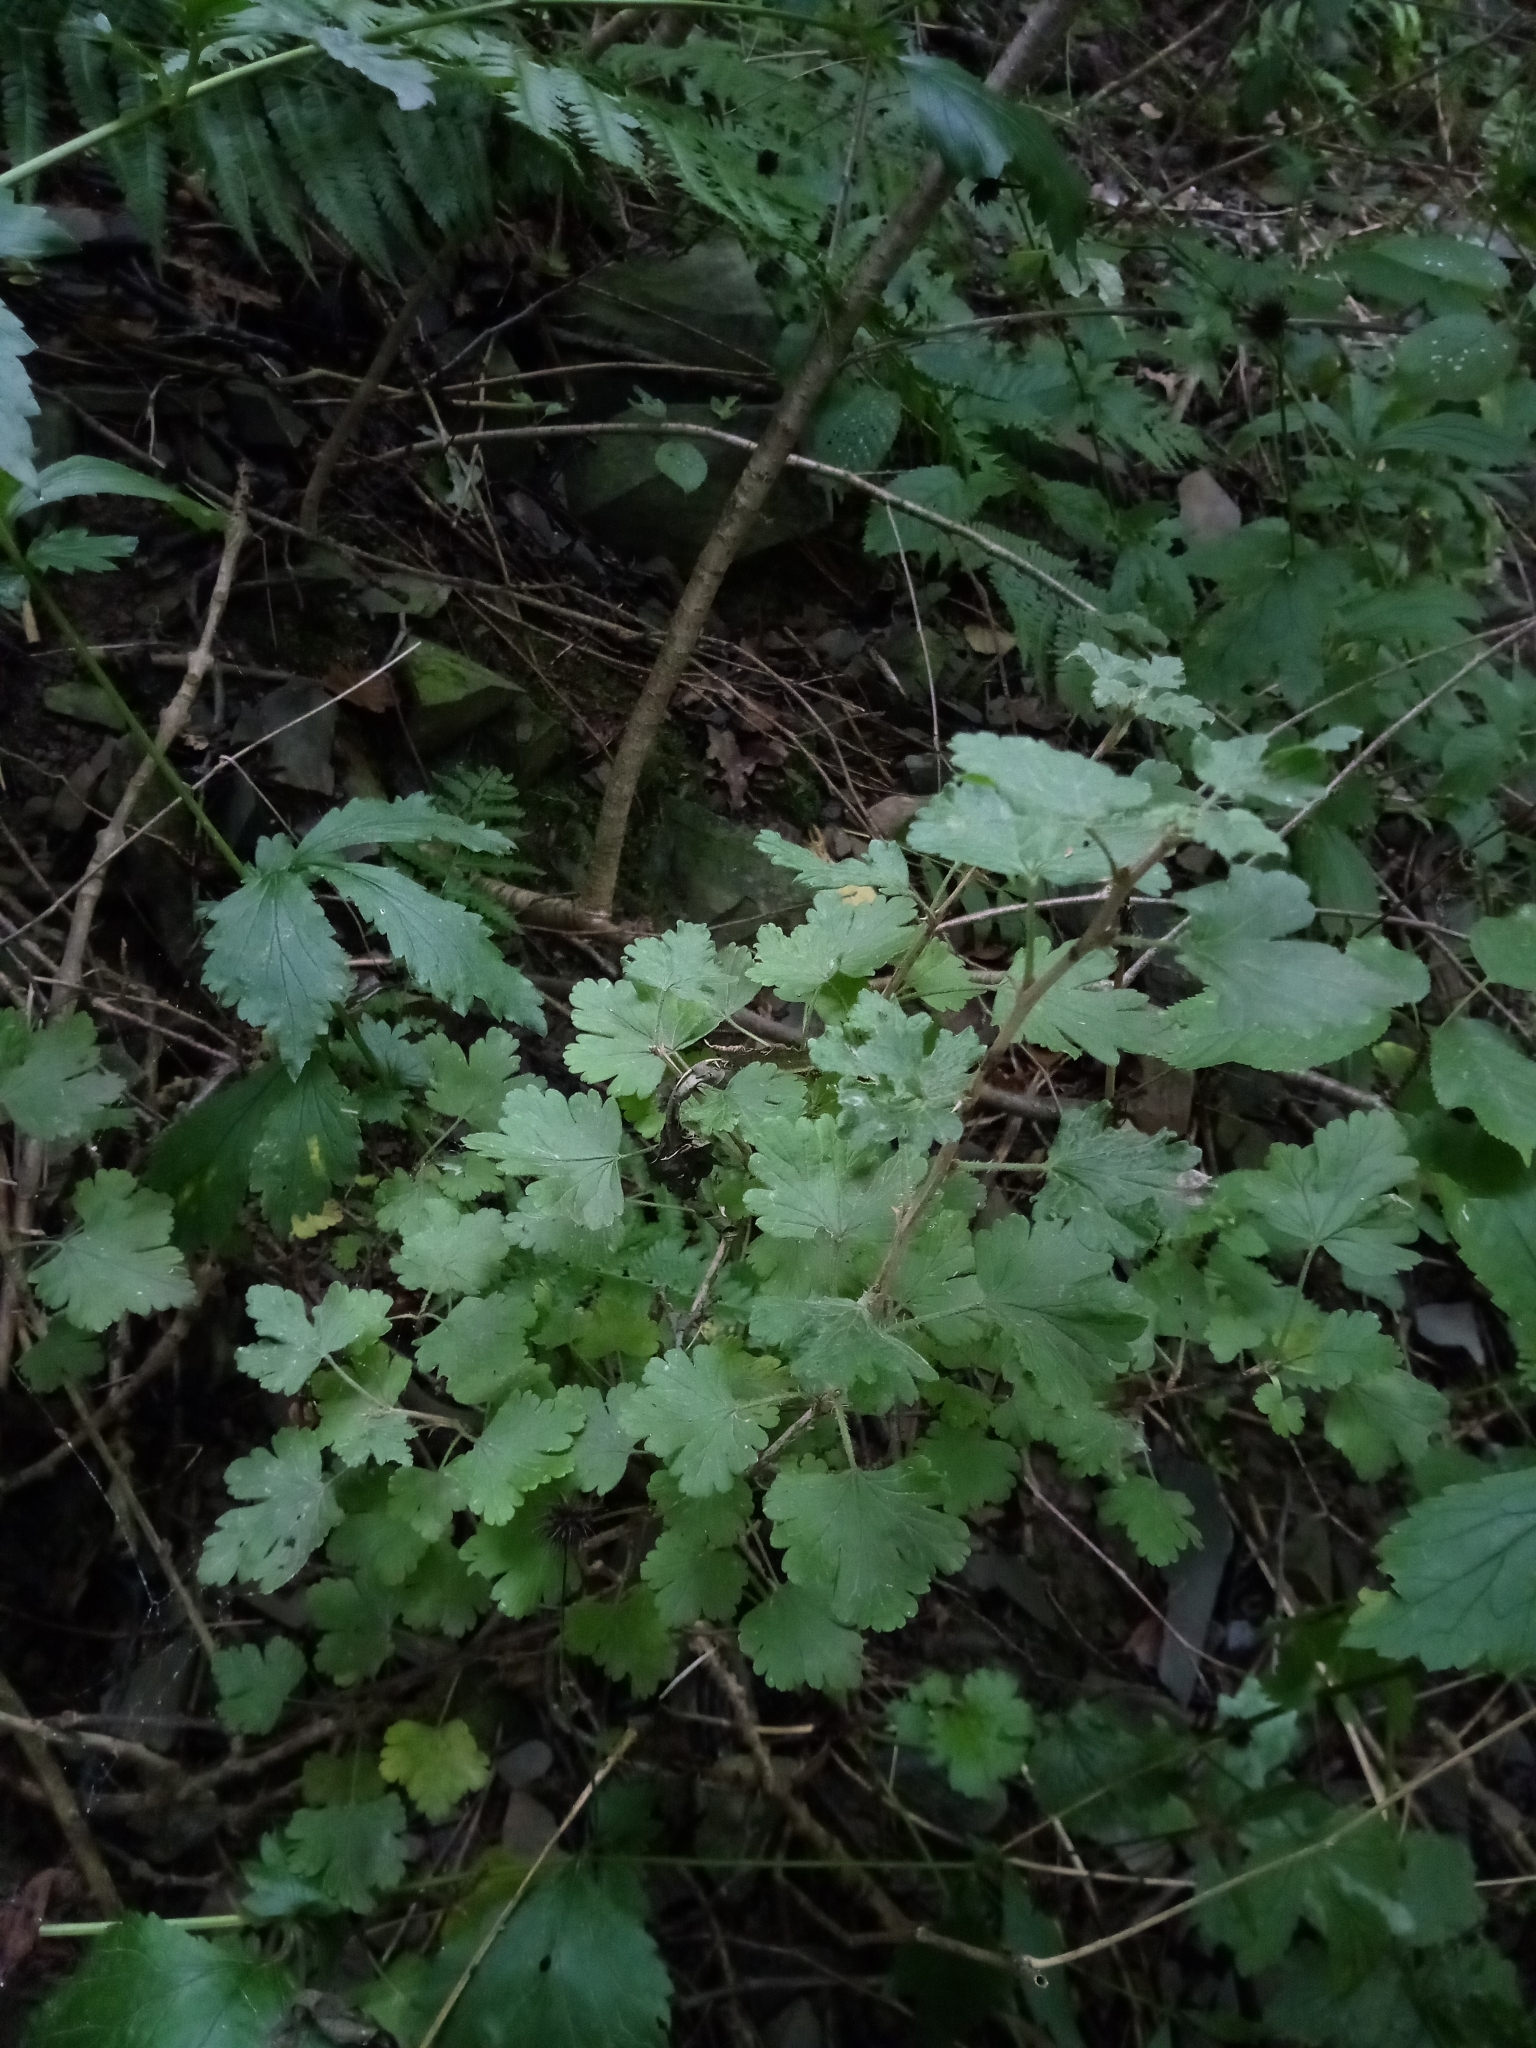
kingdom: Plantae
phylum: Tracheophyta
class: Magnoliopsida
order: Saxifragales
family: Grossulariaceae
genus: Ribes
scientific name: Ribes uva-crispa
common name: Gooseberry
